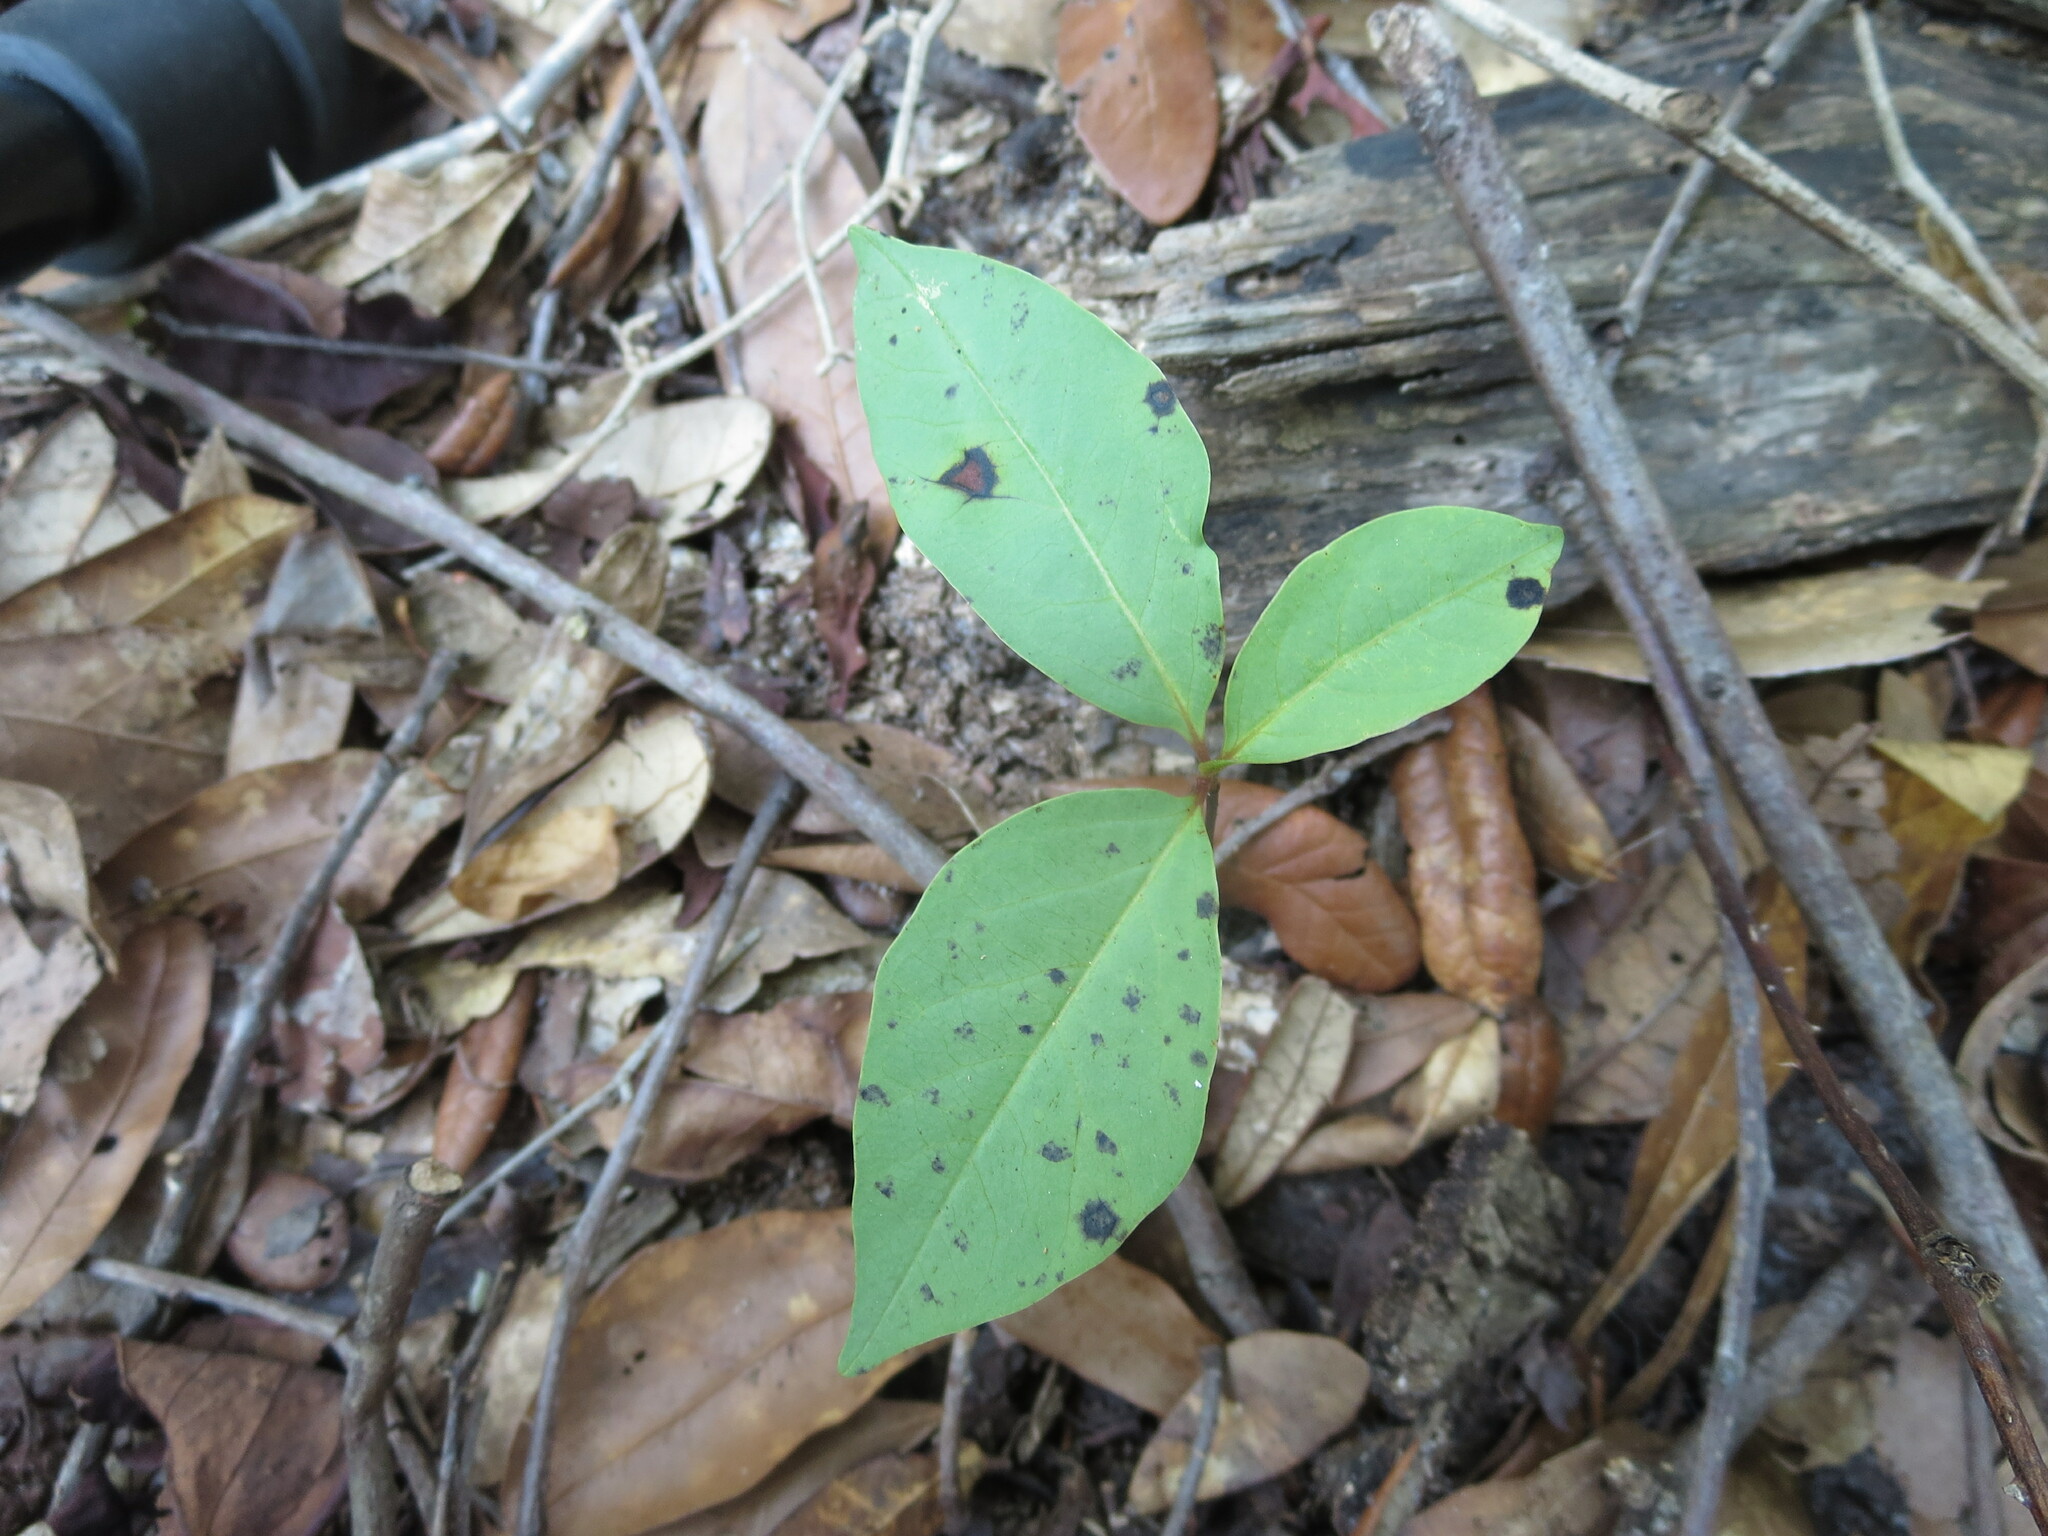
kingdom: Plantae
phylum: Tracheophyta
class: Magnoliopsida
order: Ericales
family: Ebenaceae
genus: Diospyros
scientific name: Diospyros virginiana
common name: Persimmon
